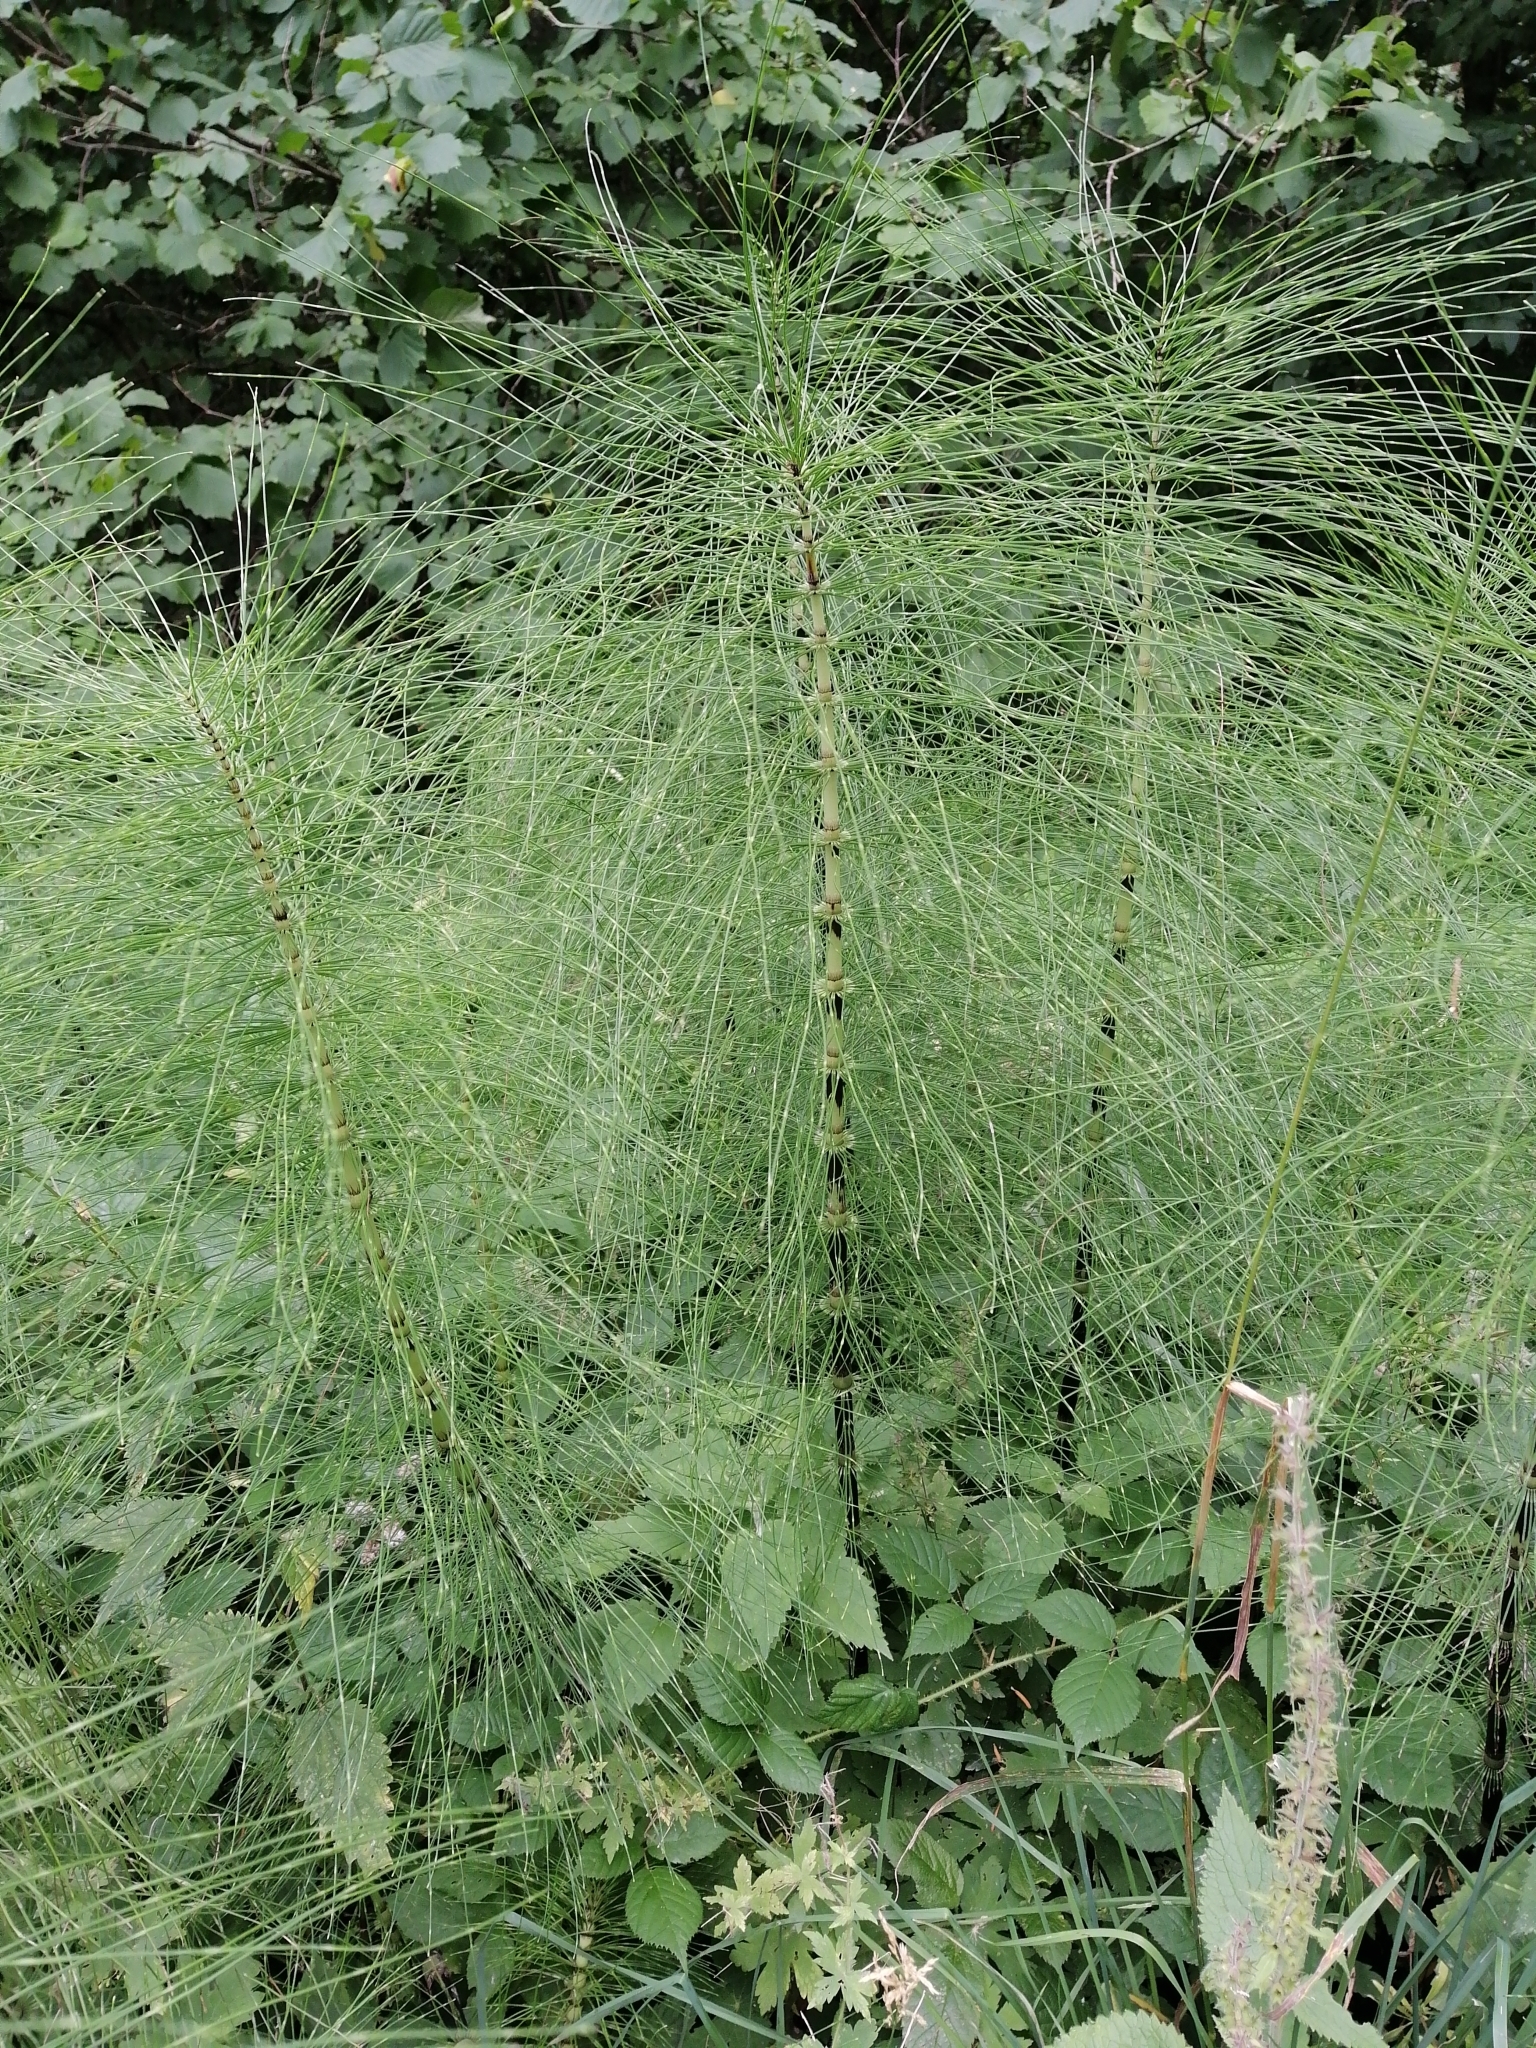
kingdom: Plantae
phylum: Tracheophyta
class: Polypodiopsida
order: Equisetales
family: Equisetaceae
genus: Equisetum
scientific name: Equisetum telmateia
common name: Great horsetail
